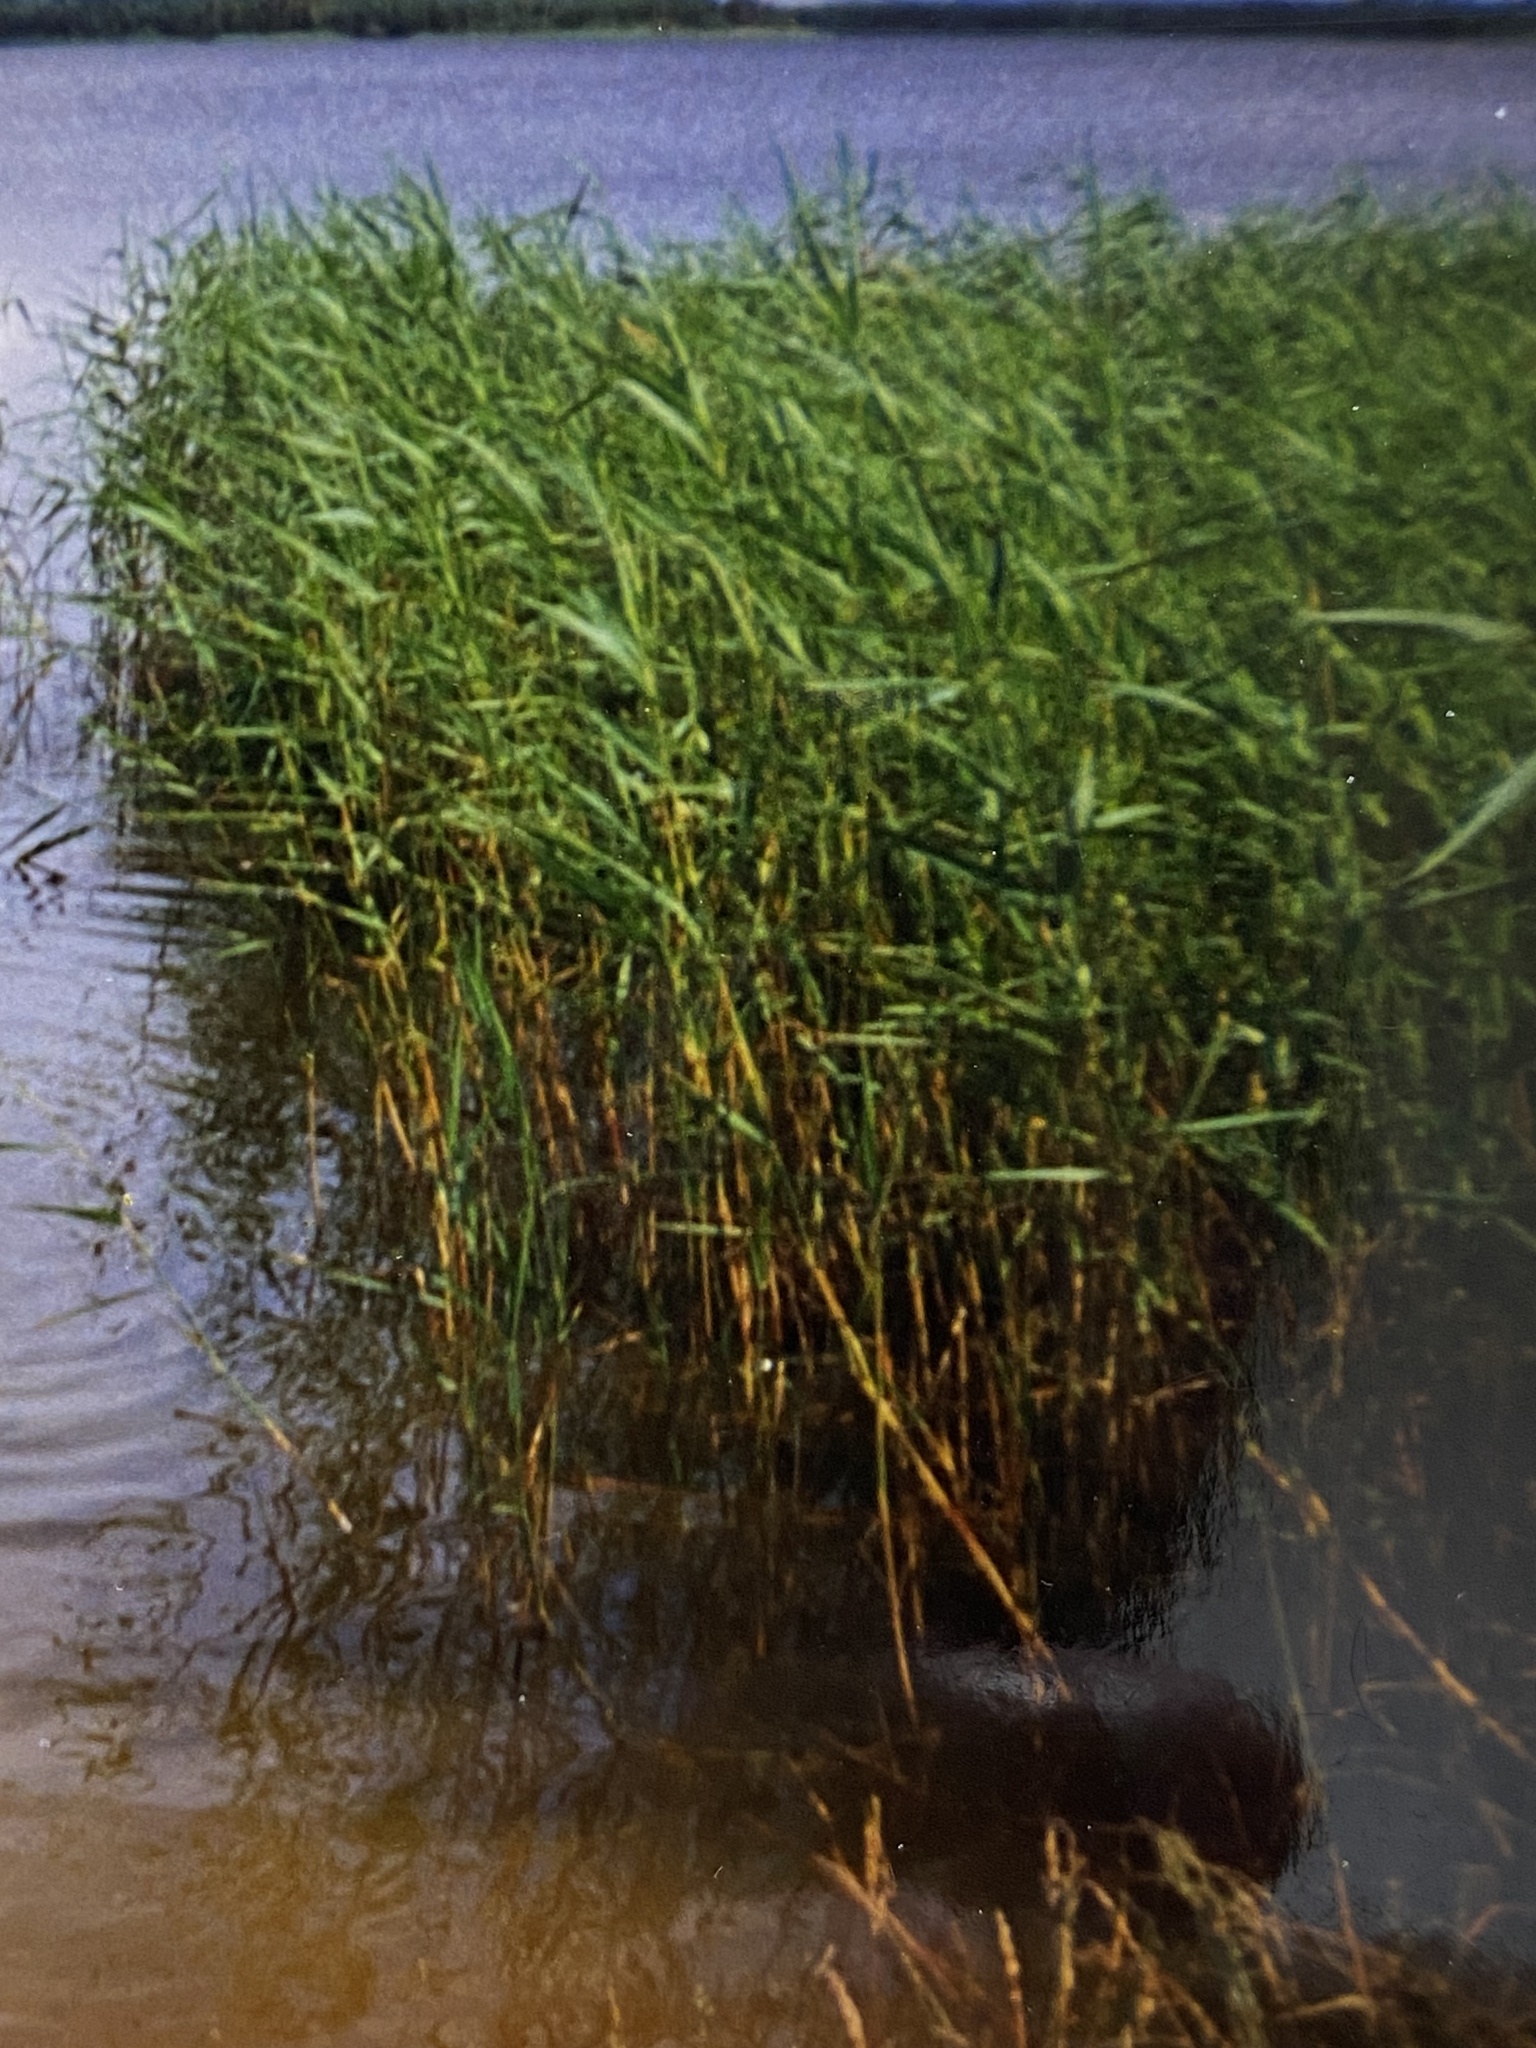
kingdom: Plantae
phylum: Tracheophyta
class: Liliopsida
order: Poales
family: Poaceae
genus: Phragmites
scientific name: Phragmites australis
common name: Common reed
